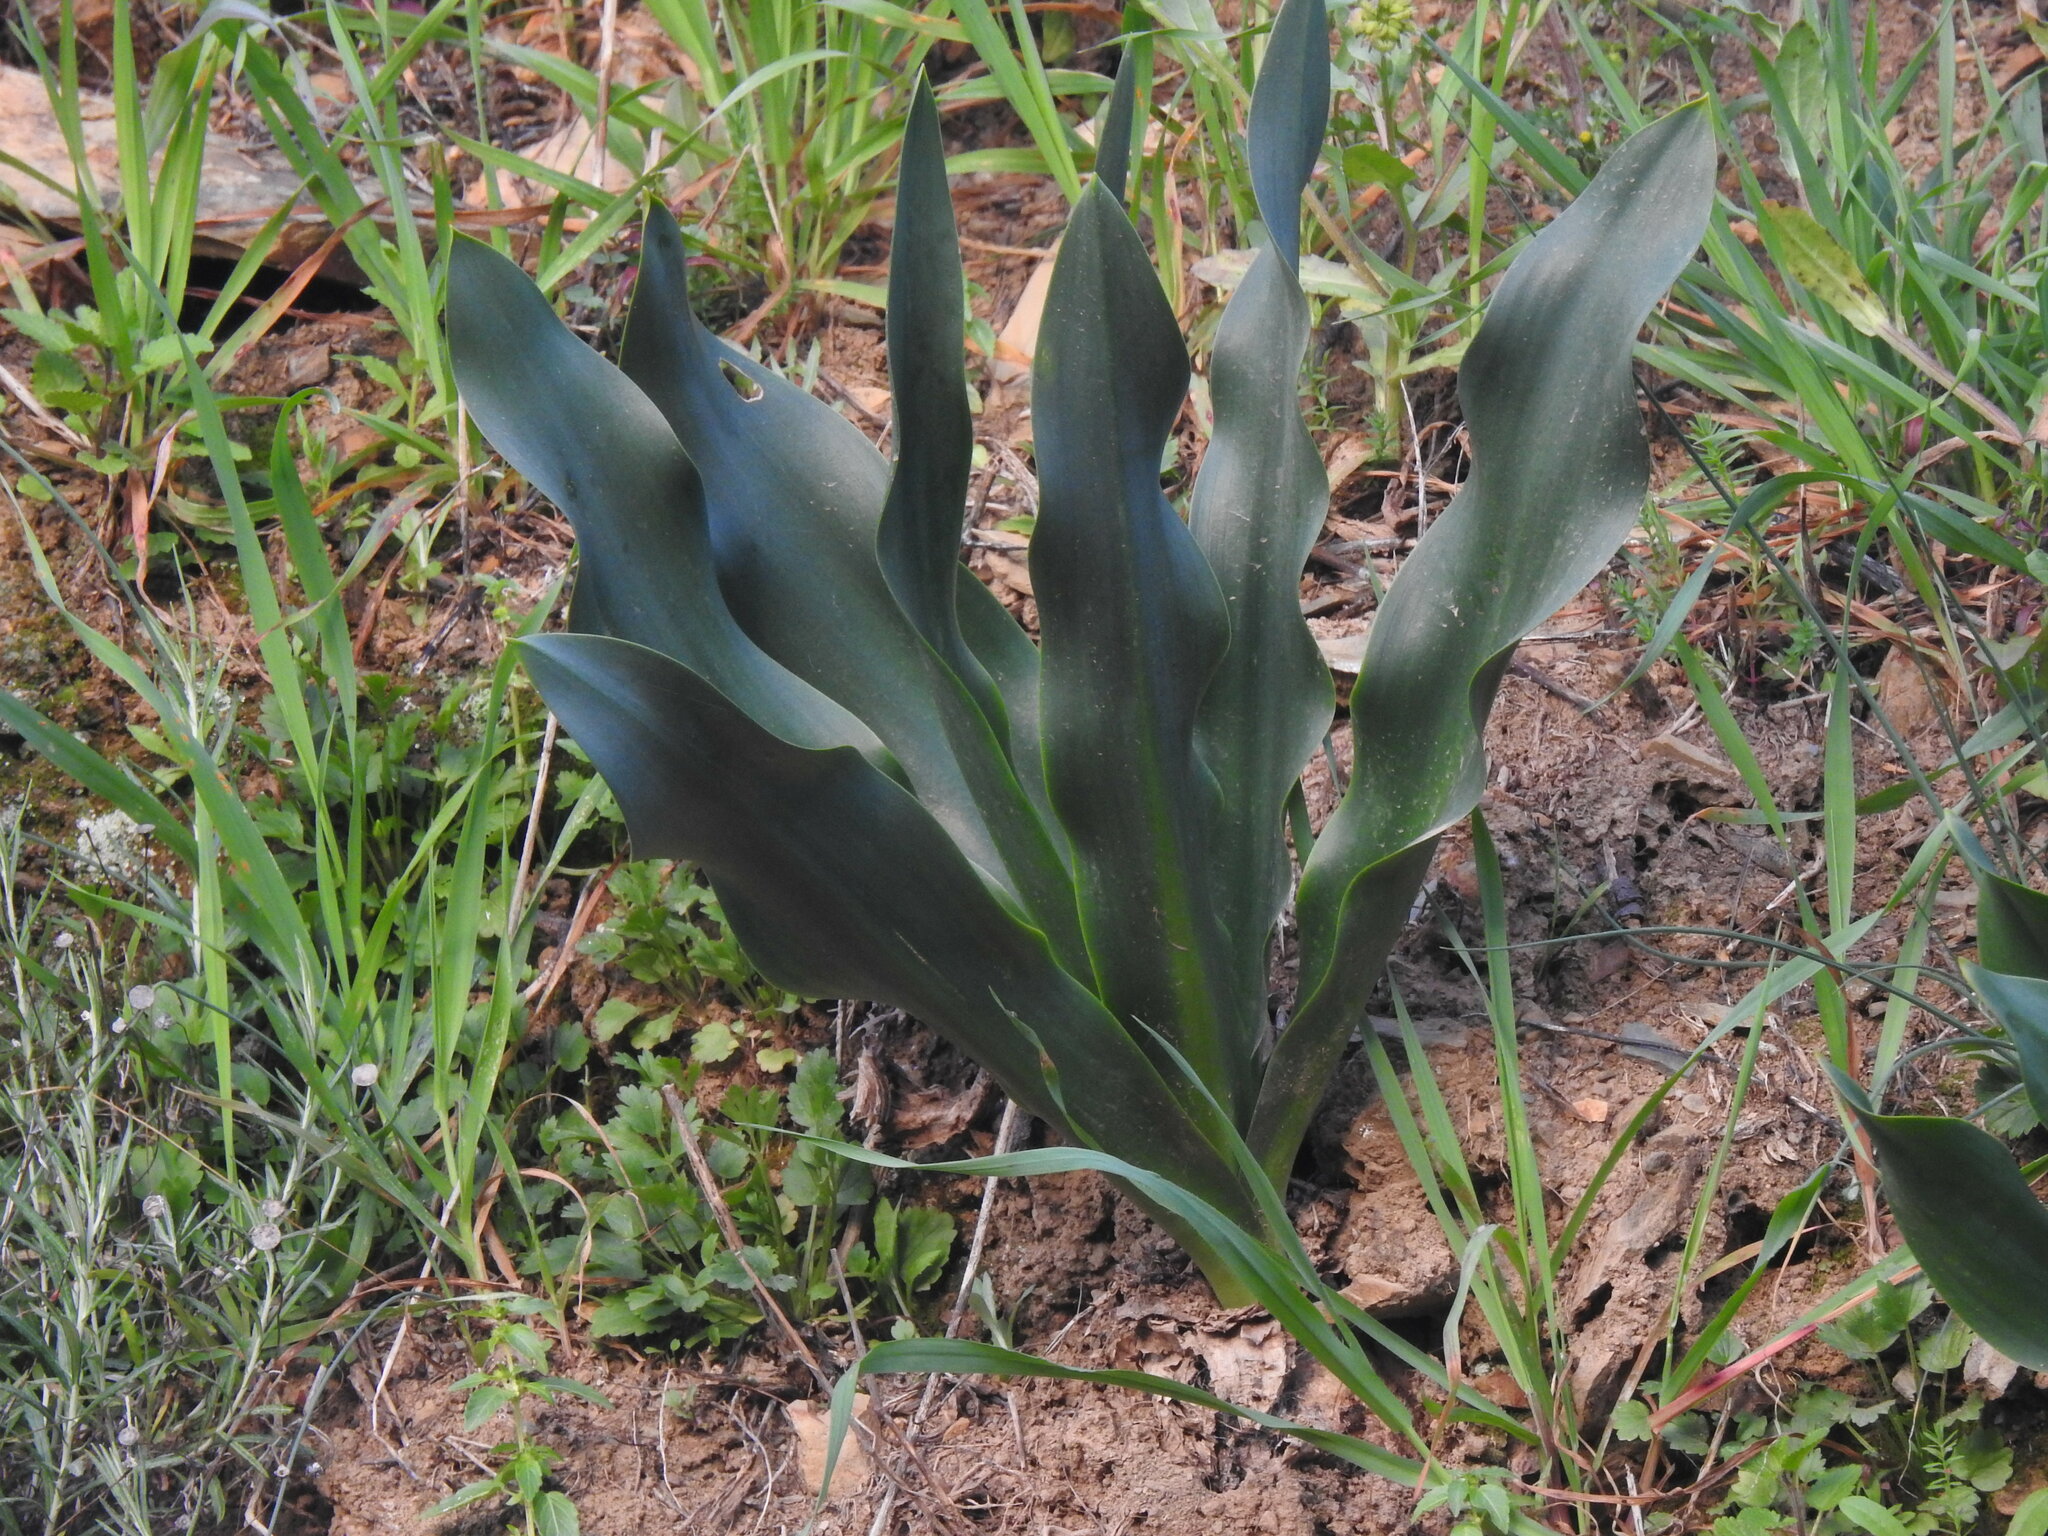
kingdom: Plantae
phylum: Tracheophyta
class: Liliopsida
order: Asparagales
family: Asparagaceae
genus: Drimia
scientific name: Drimia maritima
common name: Maritime squill
